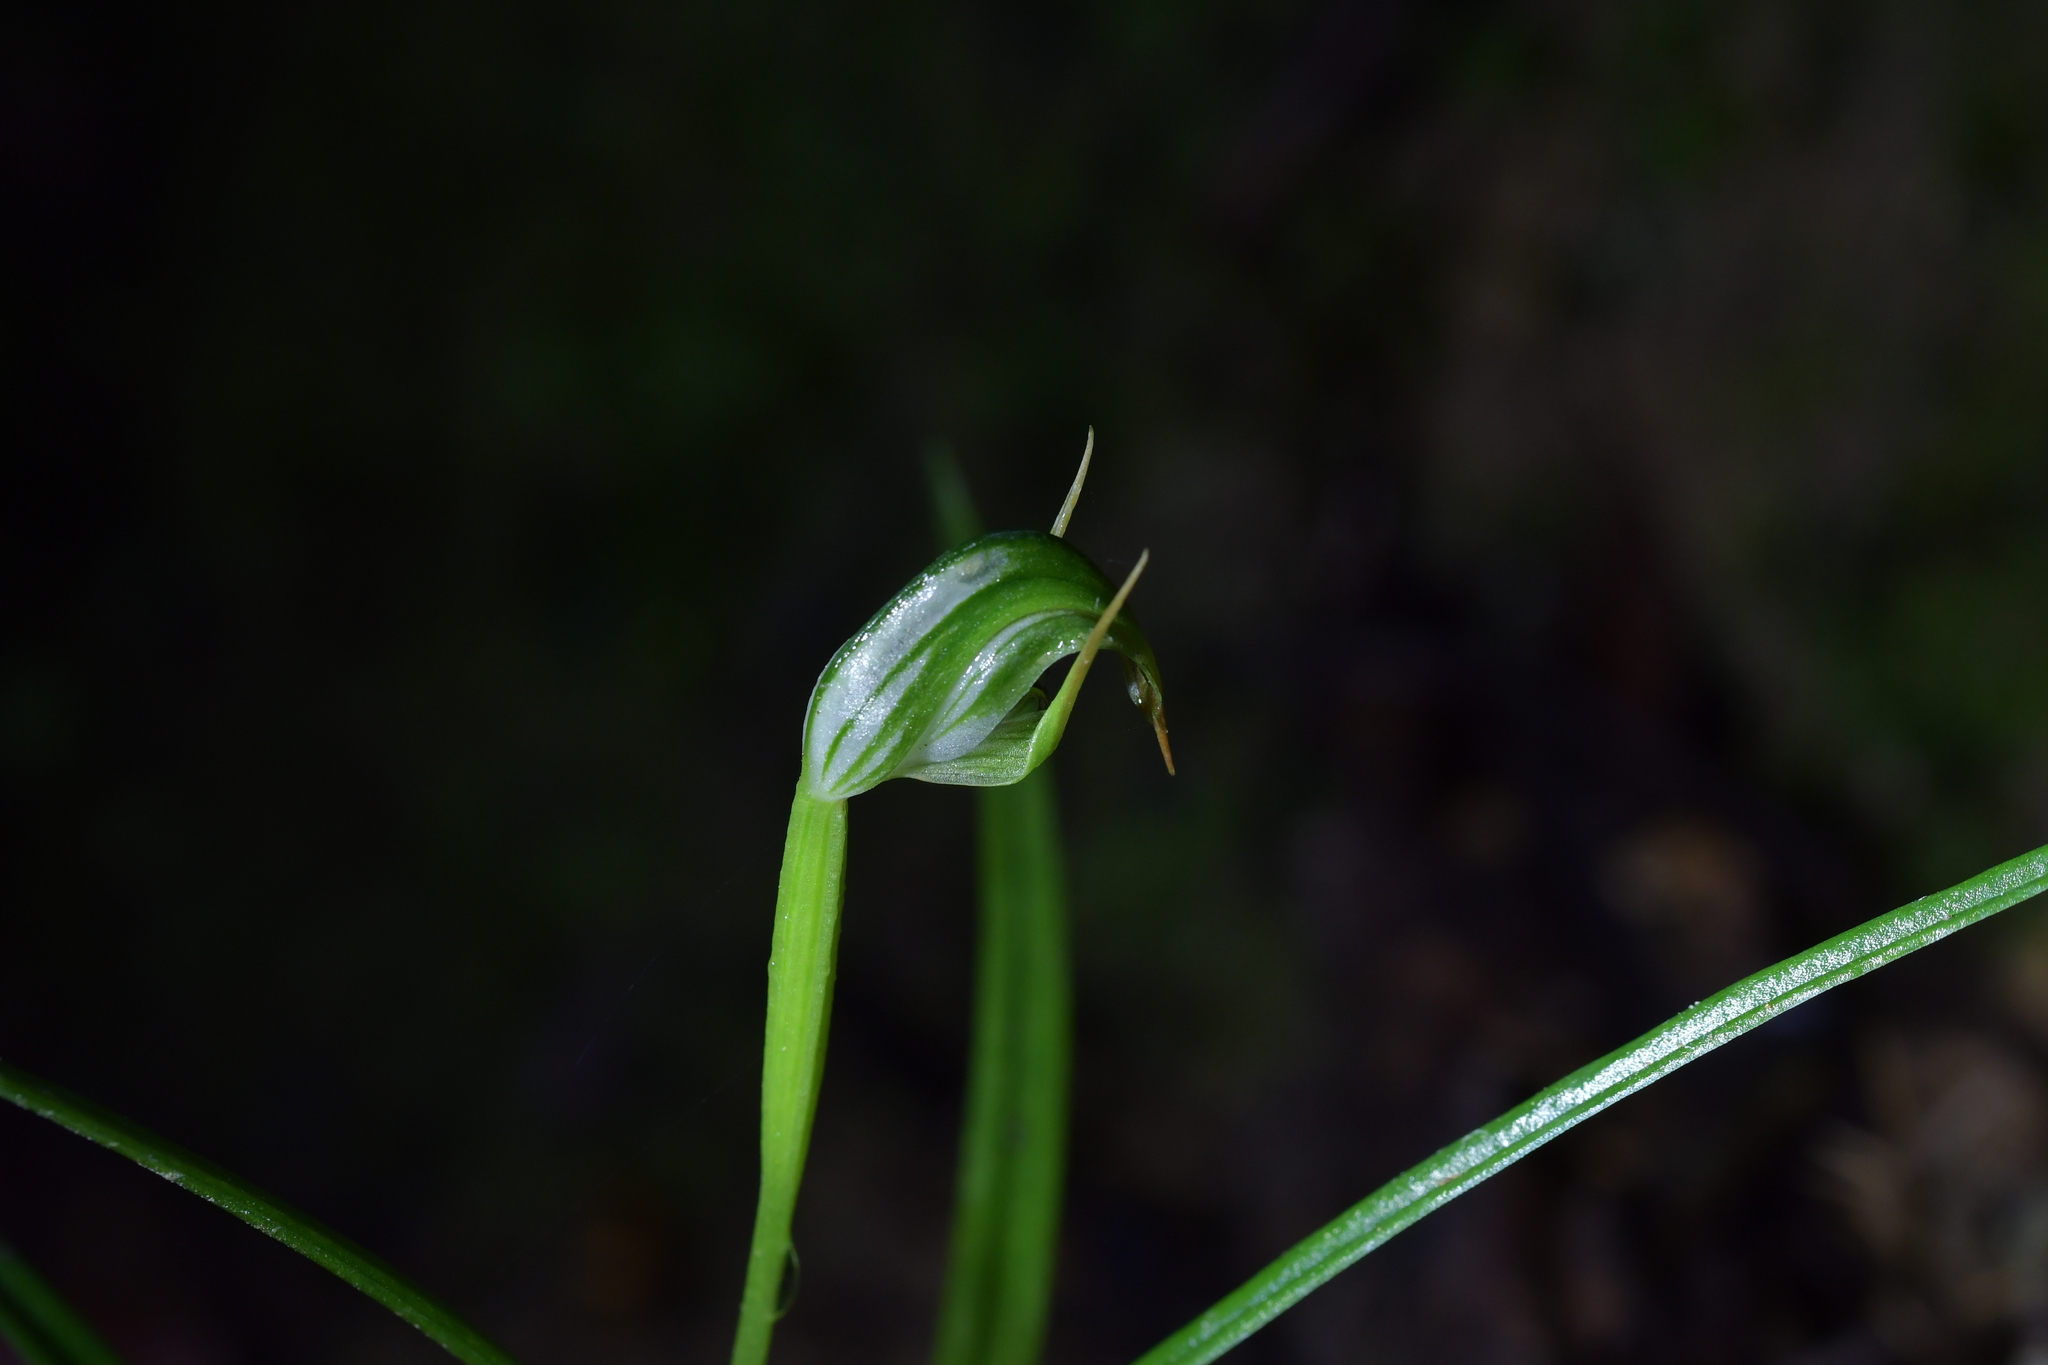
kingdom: Plantae
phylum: Tracheophyta
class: Liliopsida
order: Asparagales
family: Orchidaceae
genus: Pterostylis
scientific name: Pterostylis graminea
